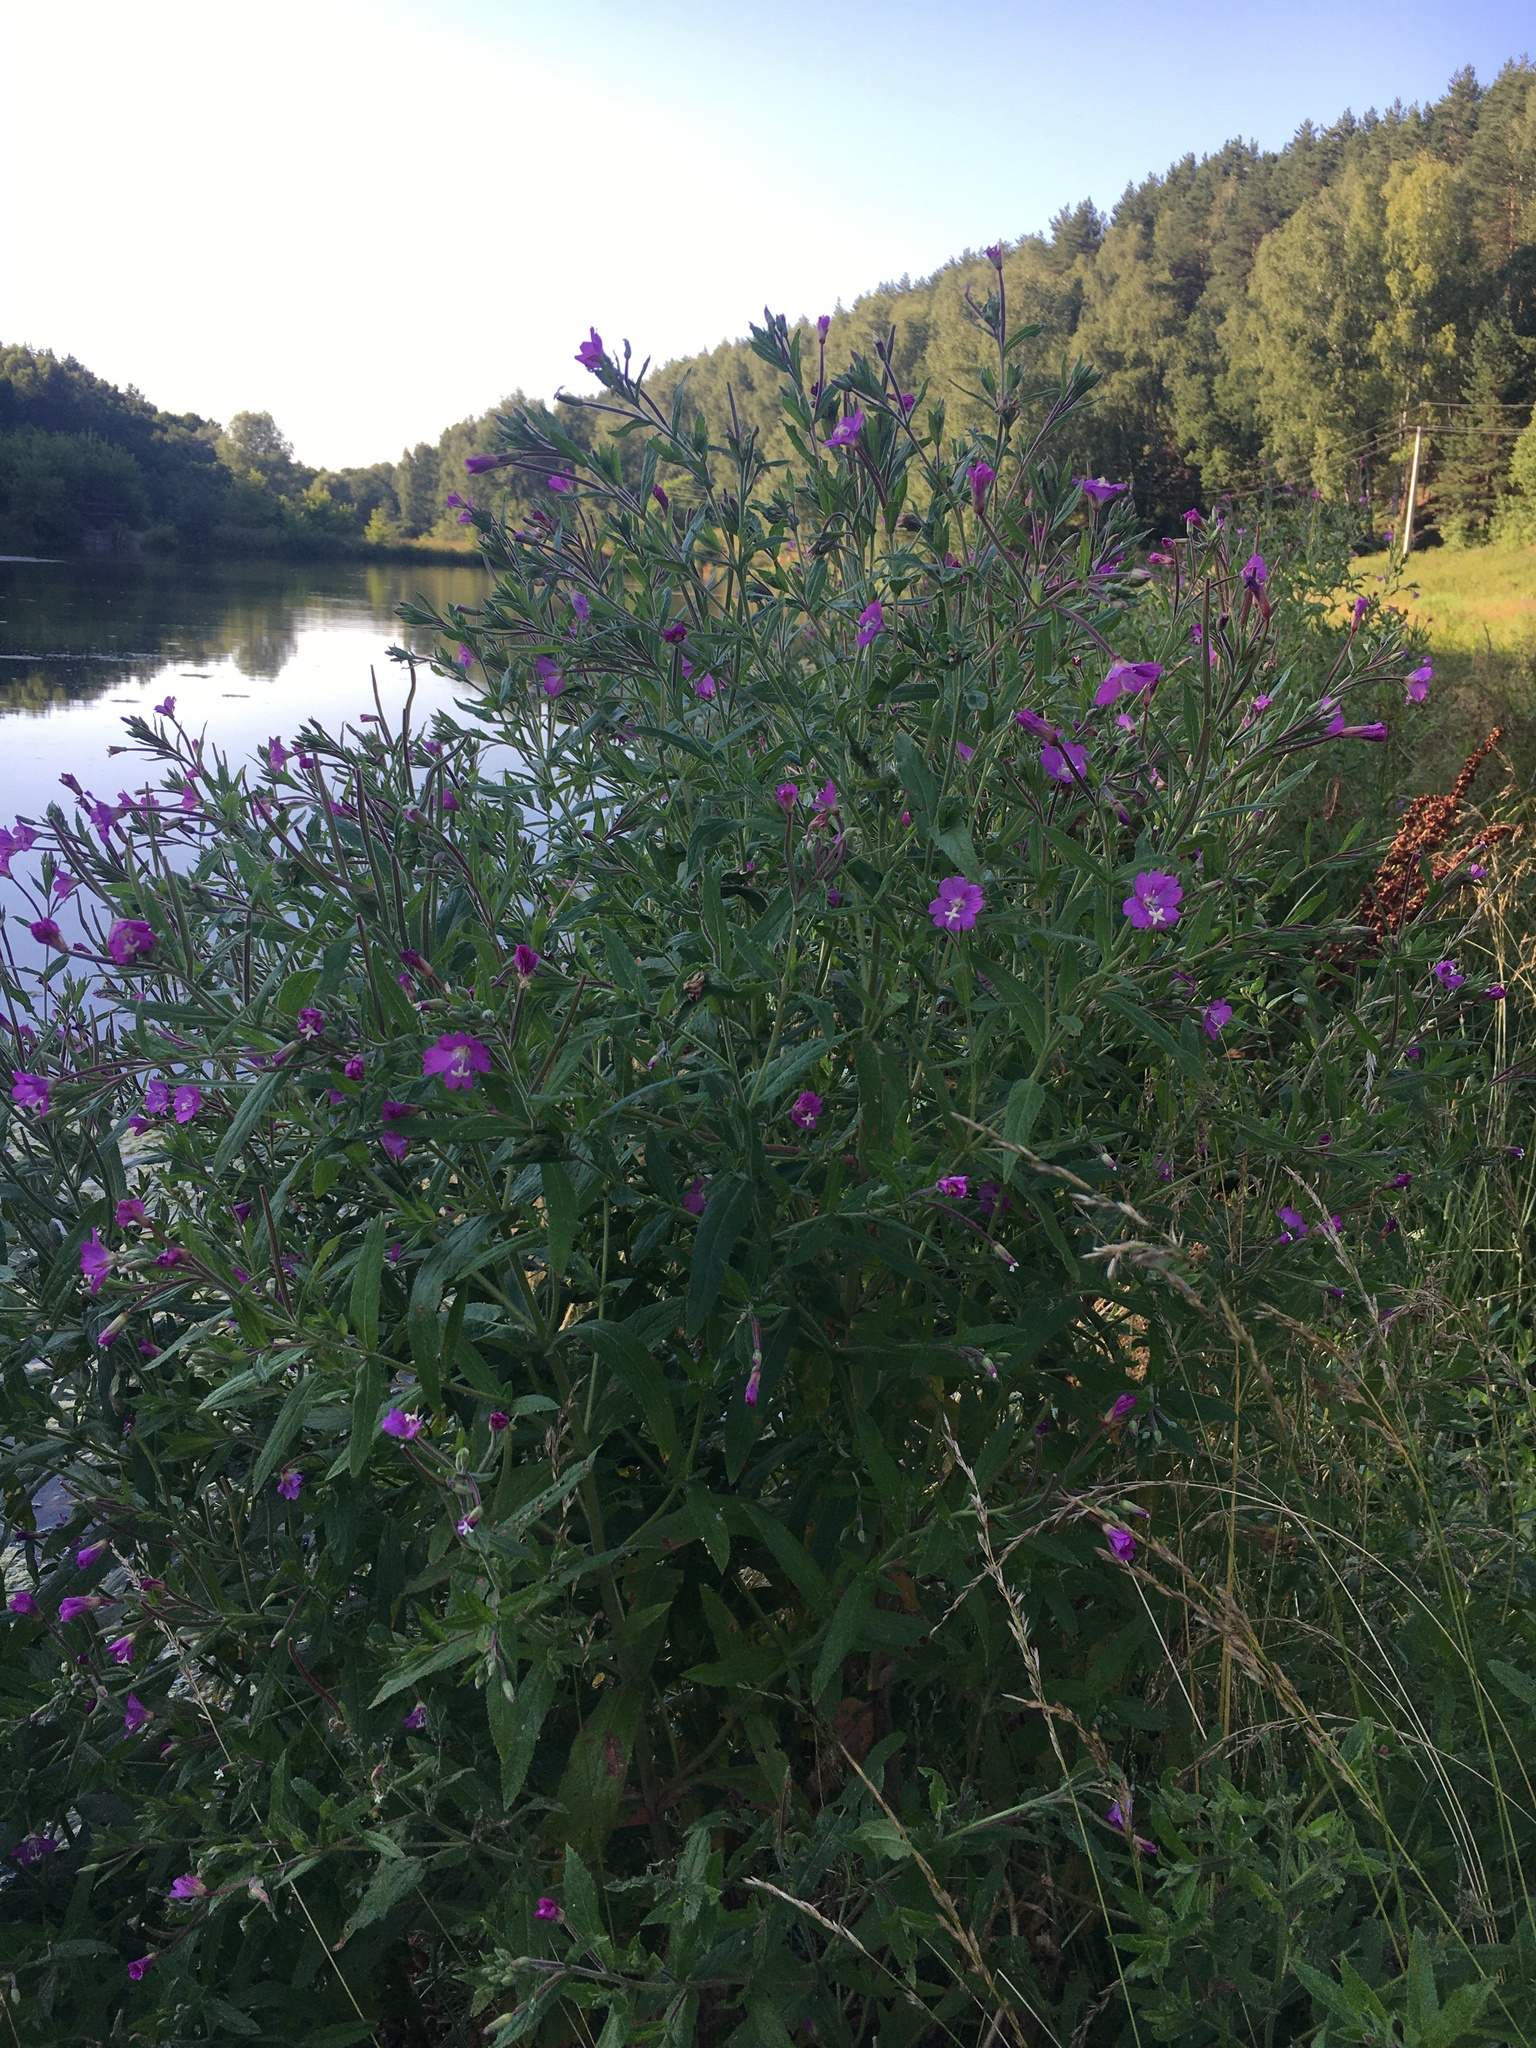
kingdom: Plantae
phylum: Tracheophyta
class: Magnoliopsida
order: Myrtales
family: Onagraceae
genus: Epilobium
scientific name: Epilobium hirsutum
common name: Great willowherb
